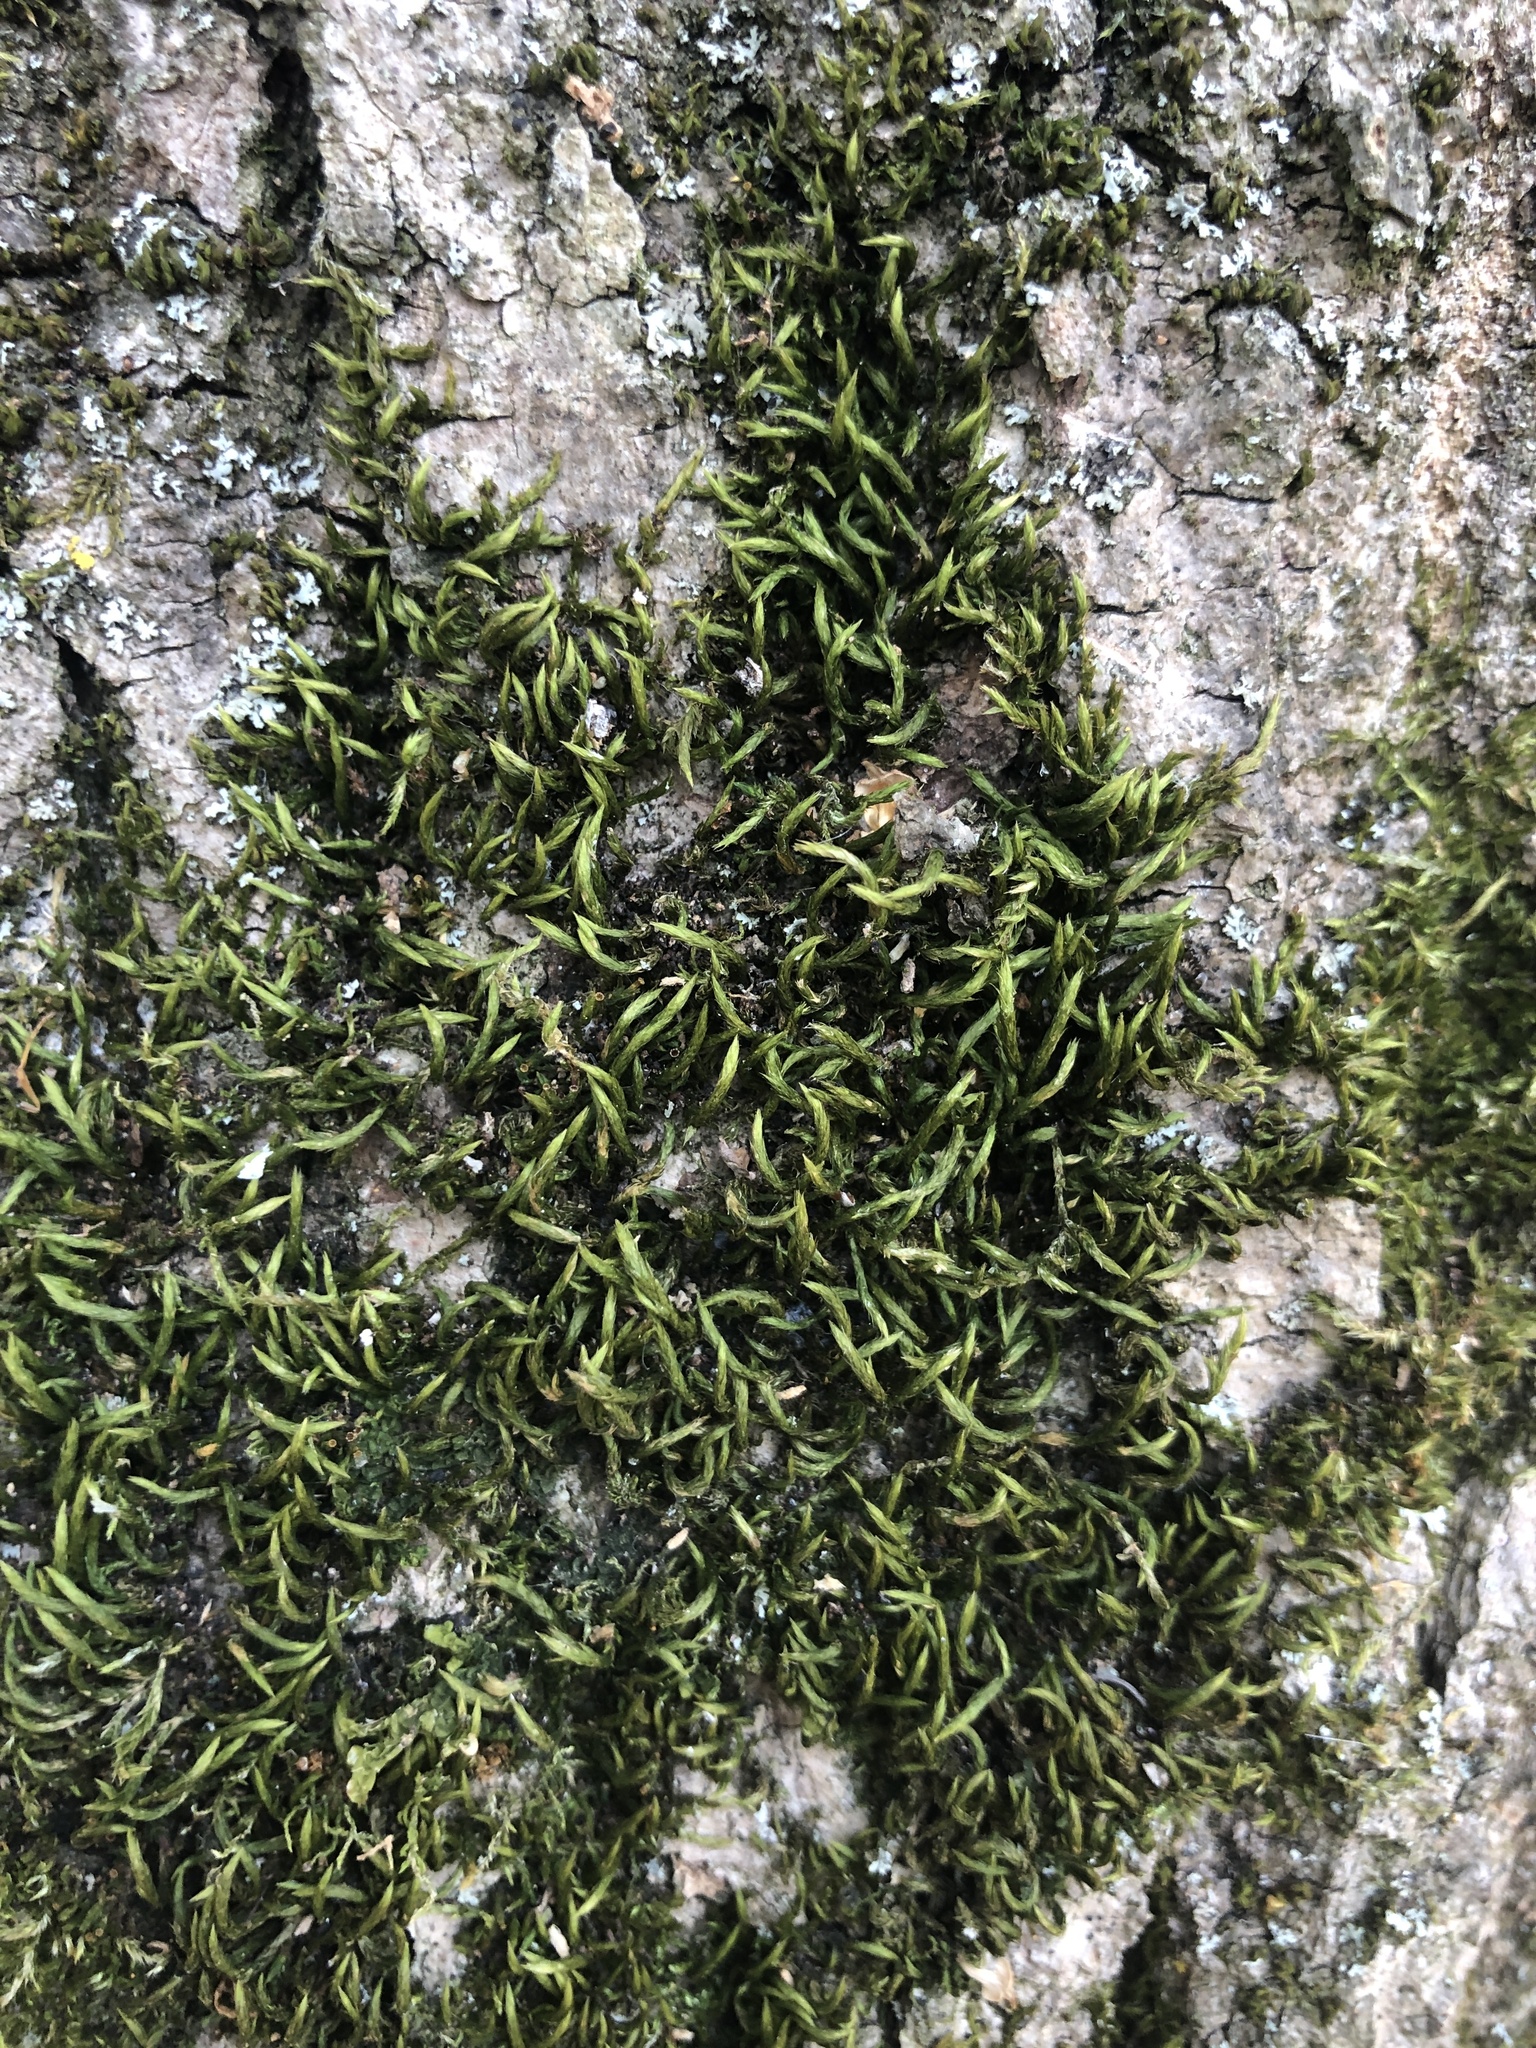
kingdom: Plantae
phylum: Bryophyta
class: Bryopsida
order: Hypnales
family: Leucodontaceae
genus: Leucodon
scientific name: Leucodon sciuroides
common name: Squirrel-tail moss
